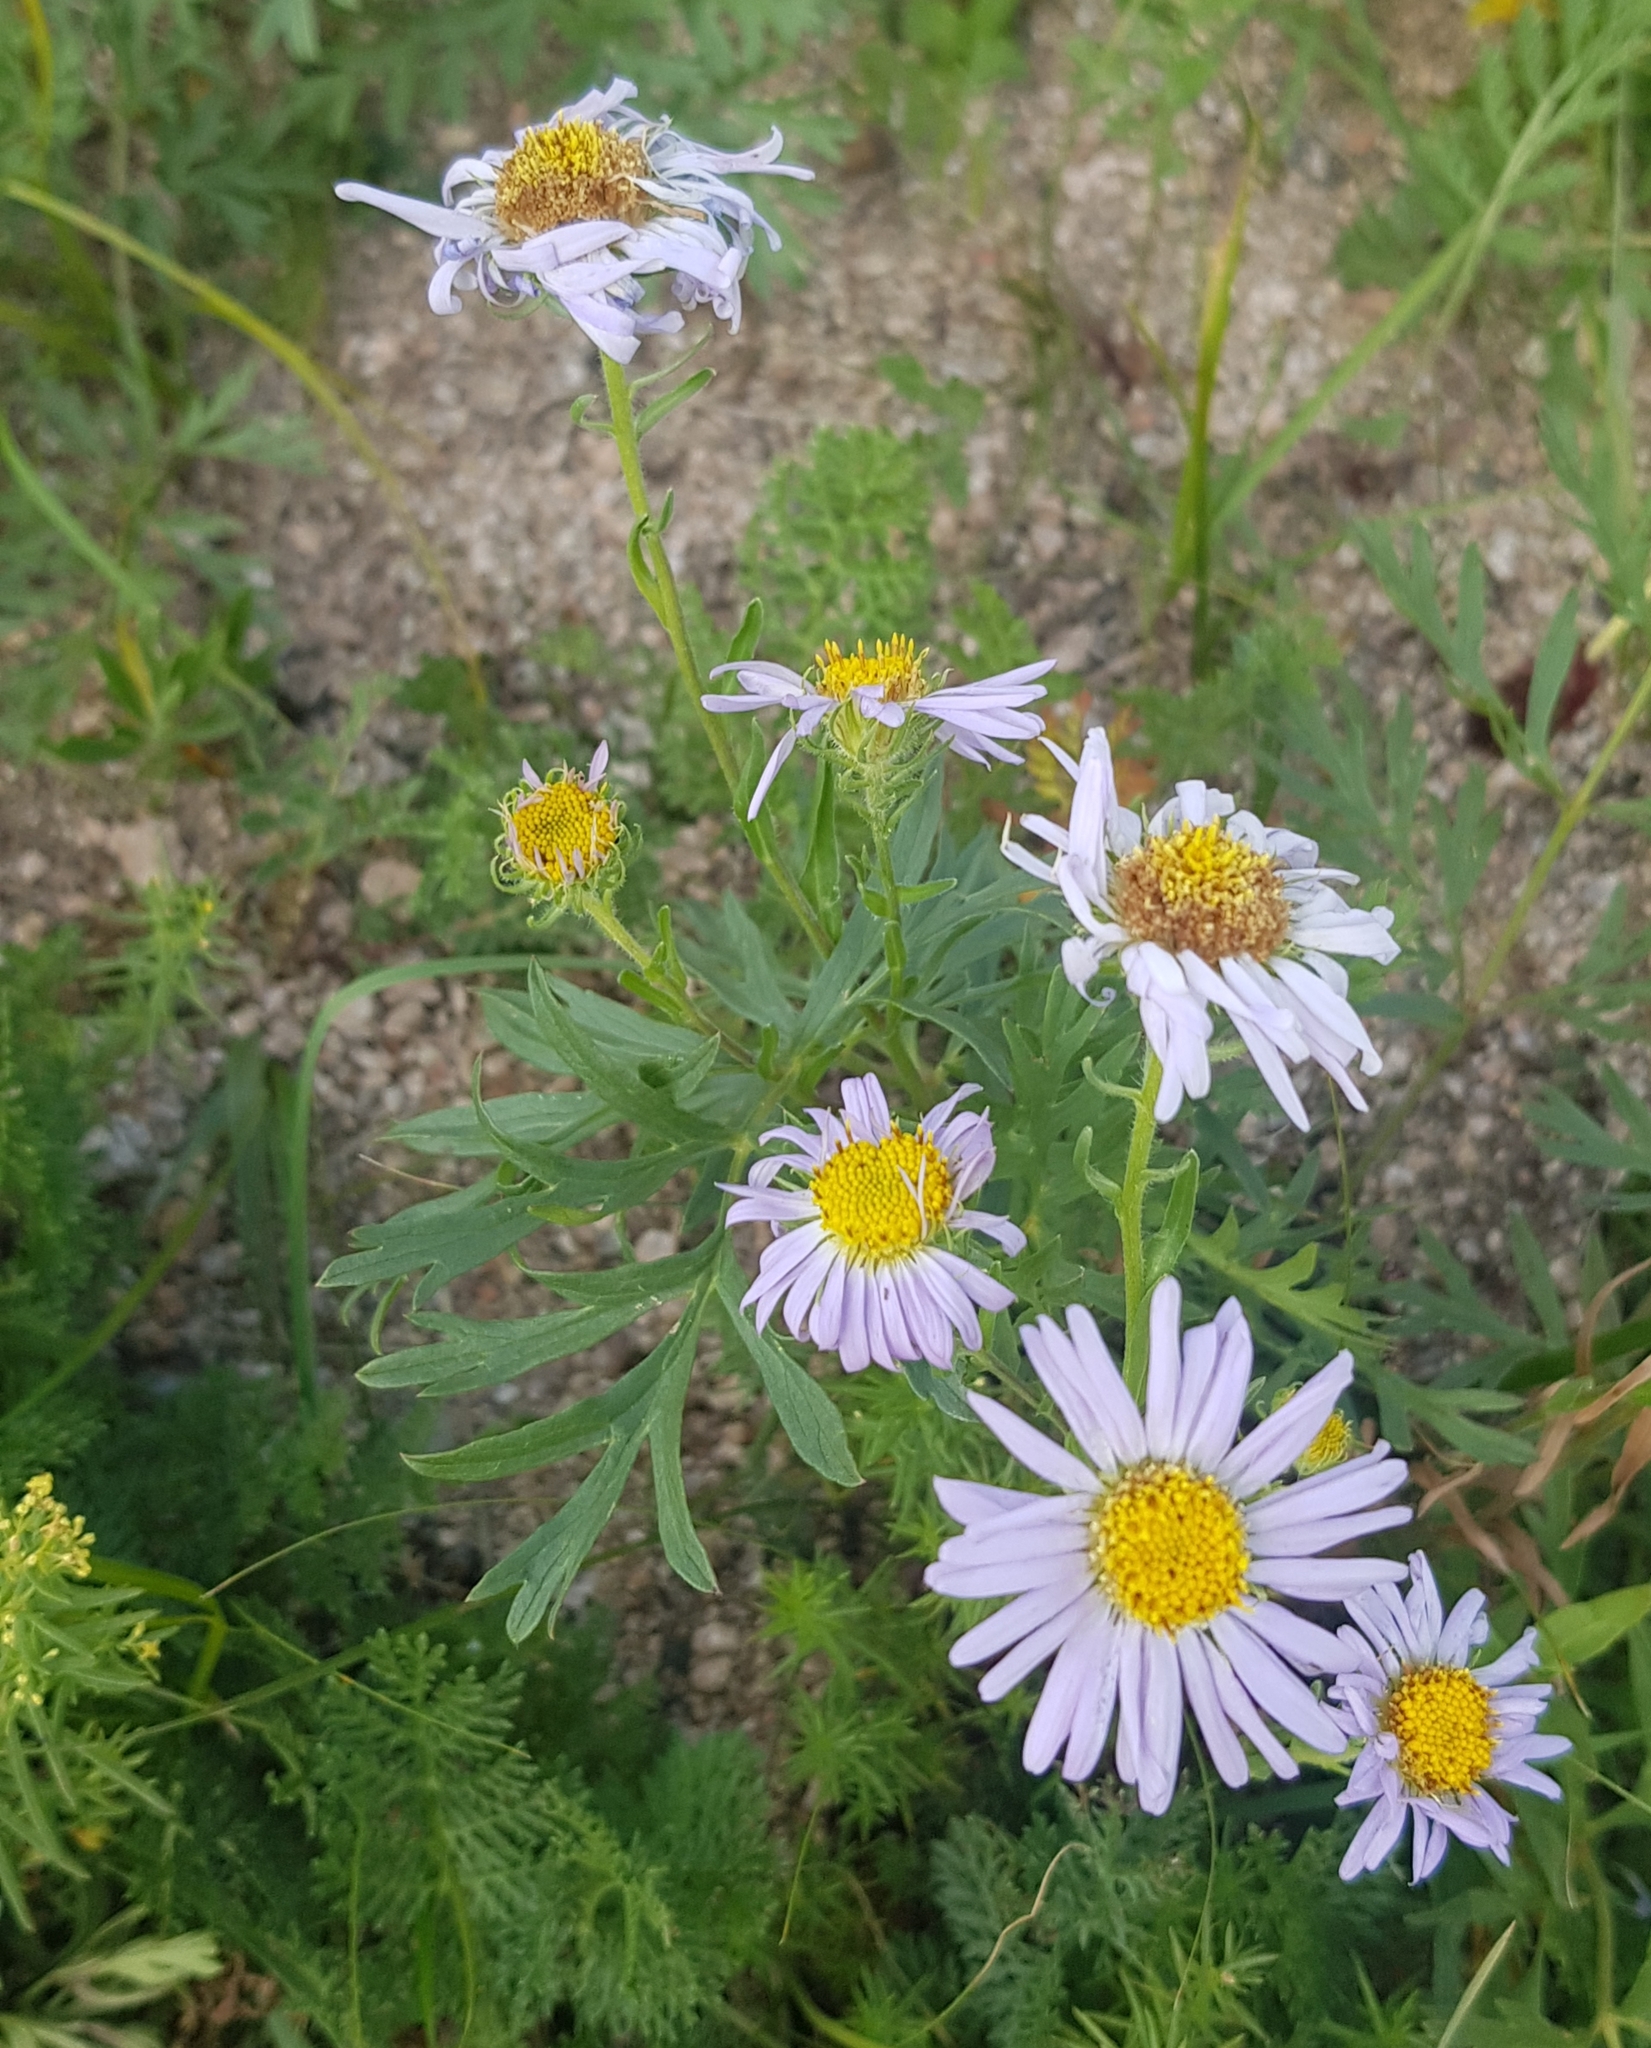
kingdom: Plantae
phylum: Tracheophyta
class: Magnoliopsida
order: Asterales
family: Asteraceae
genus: Heteropappus
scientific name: Heteropappus altaicus
